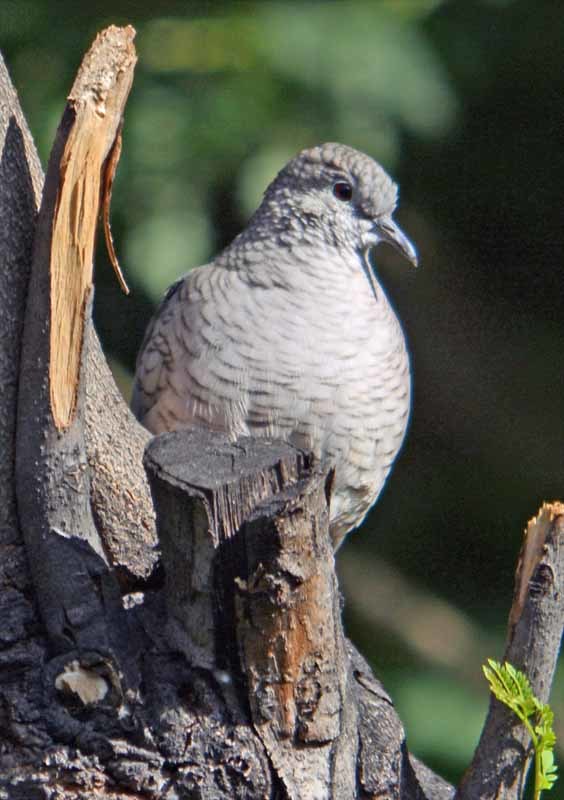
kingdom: Animalia
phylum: Chordata
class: Aves
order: Columbiformes
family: Columbidae
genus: Columbina
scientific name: Columbina inca
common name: Inca dove
